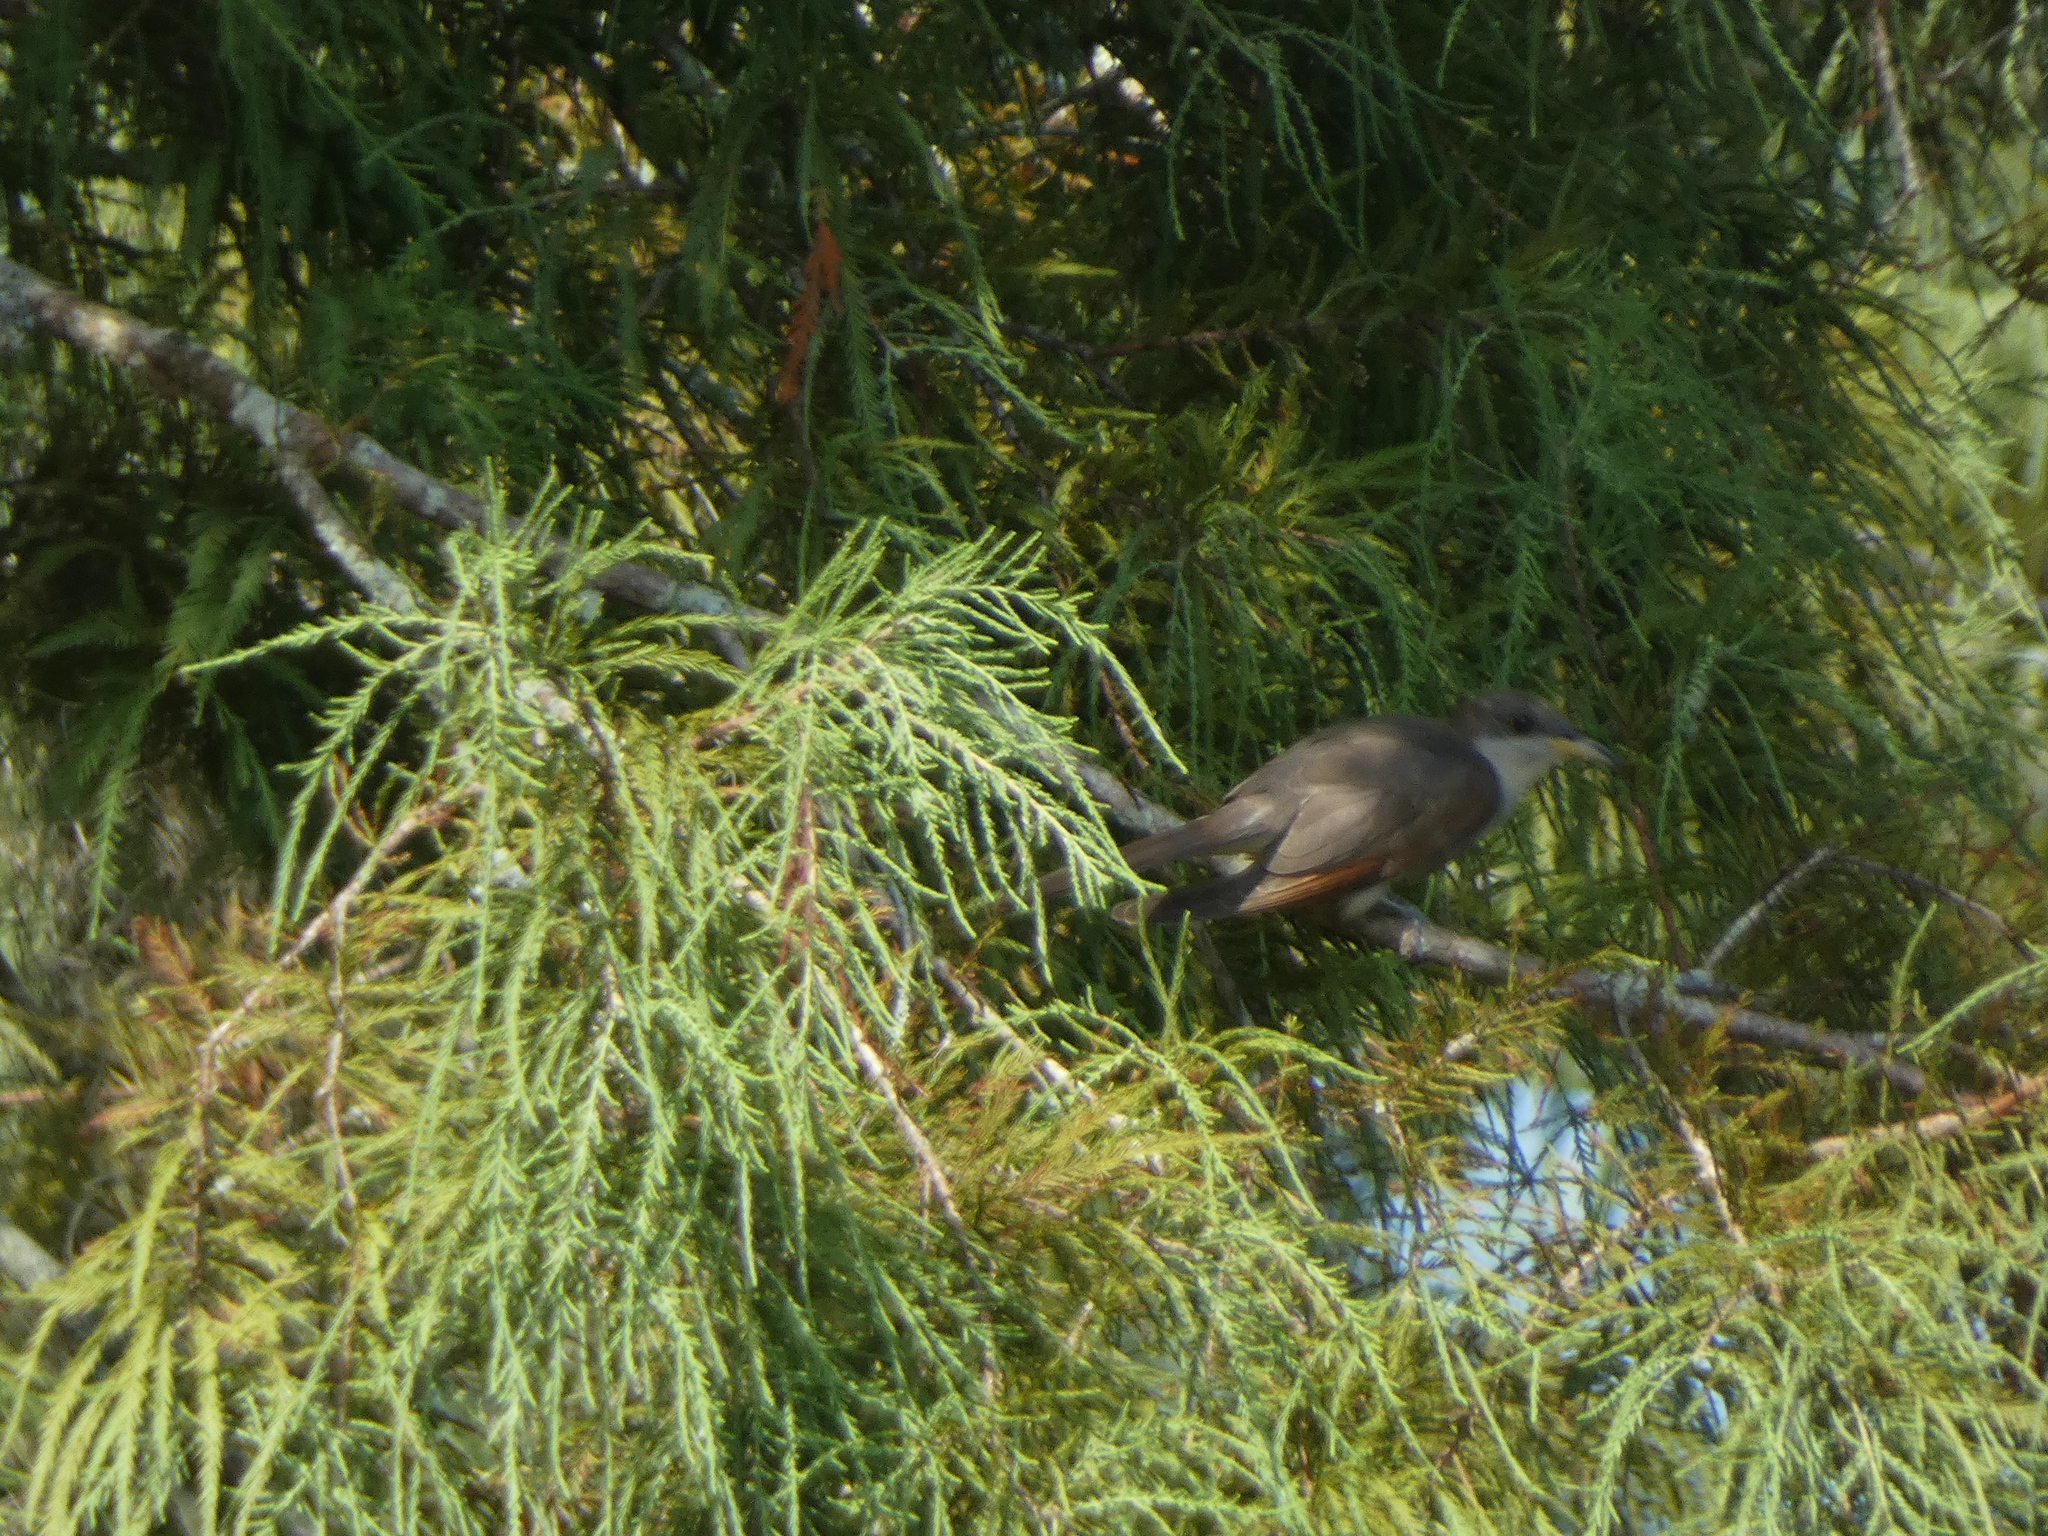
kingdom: Animalia
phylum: Chordata
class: Aves
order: Cuculiformes
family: Cuculidae
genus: Coccyzus
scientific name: Coccyzus americanus
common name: Yellow-billed cuckoo
